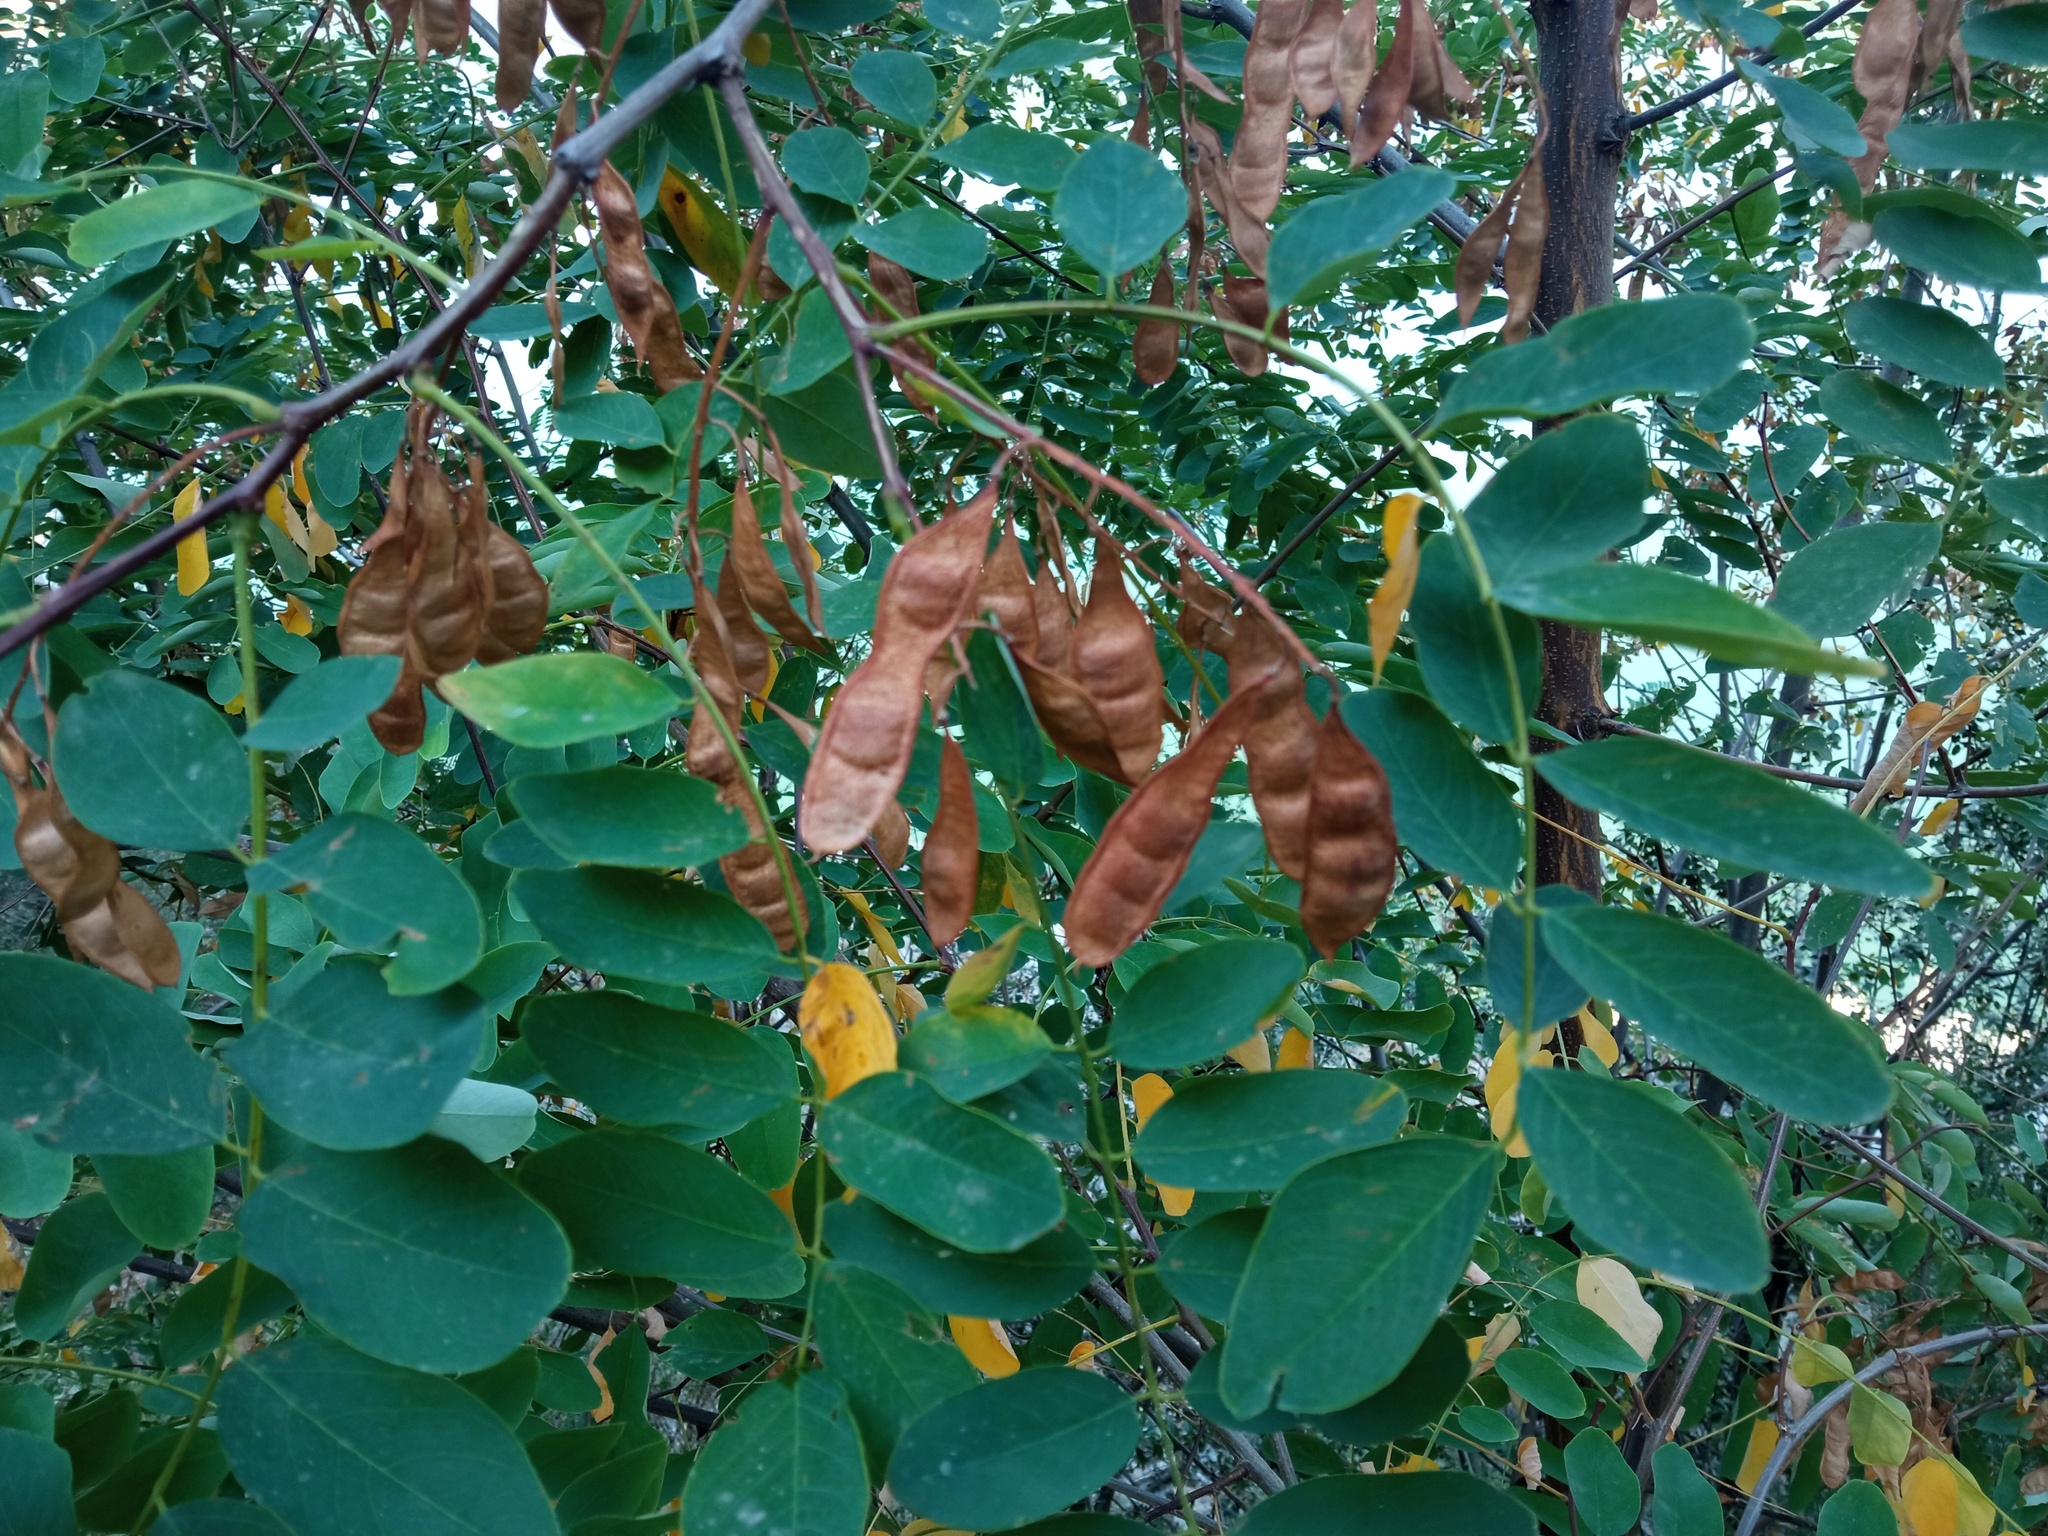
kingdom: Plantae
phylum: Tracheophyta
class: Magnoliopsida
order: Fabales
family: Fabaceae
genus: Robinia
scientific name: Robinia pseudoacacia
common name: Black locust
